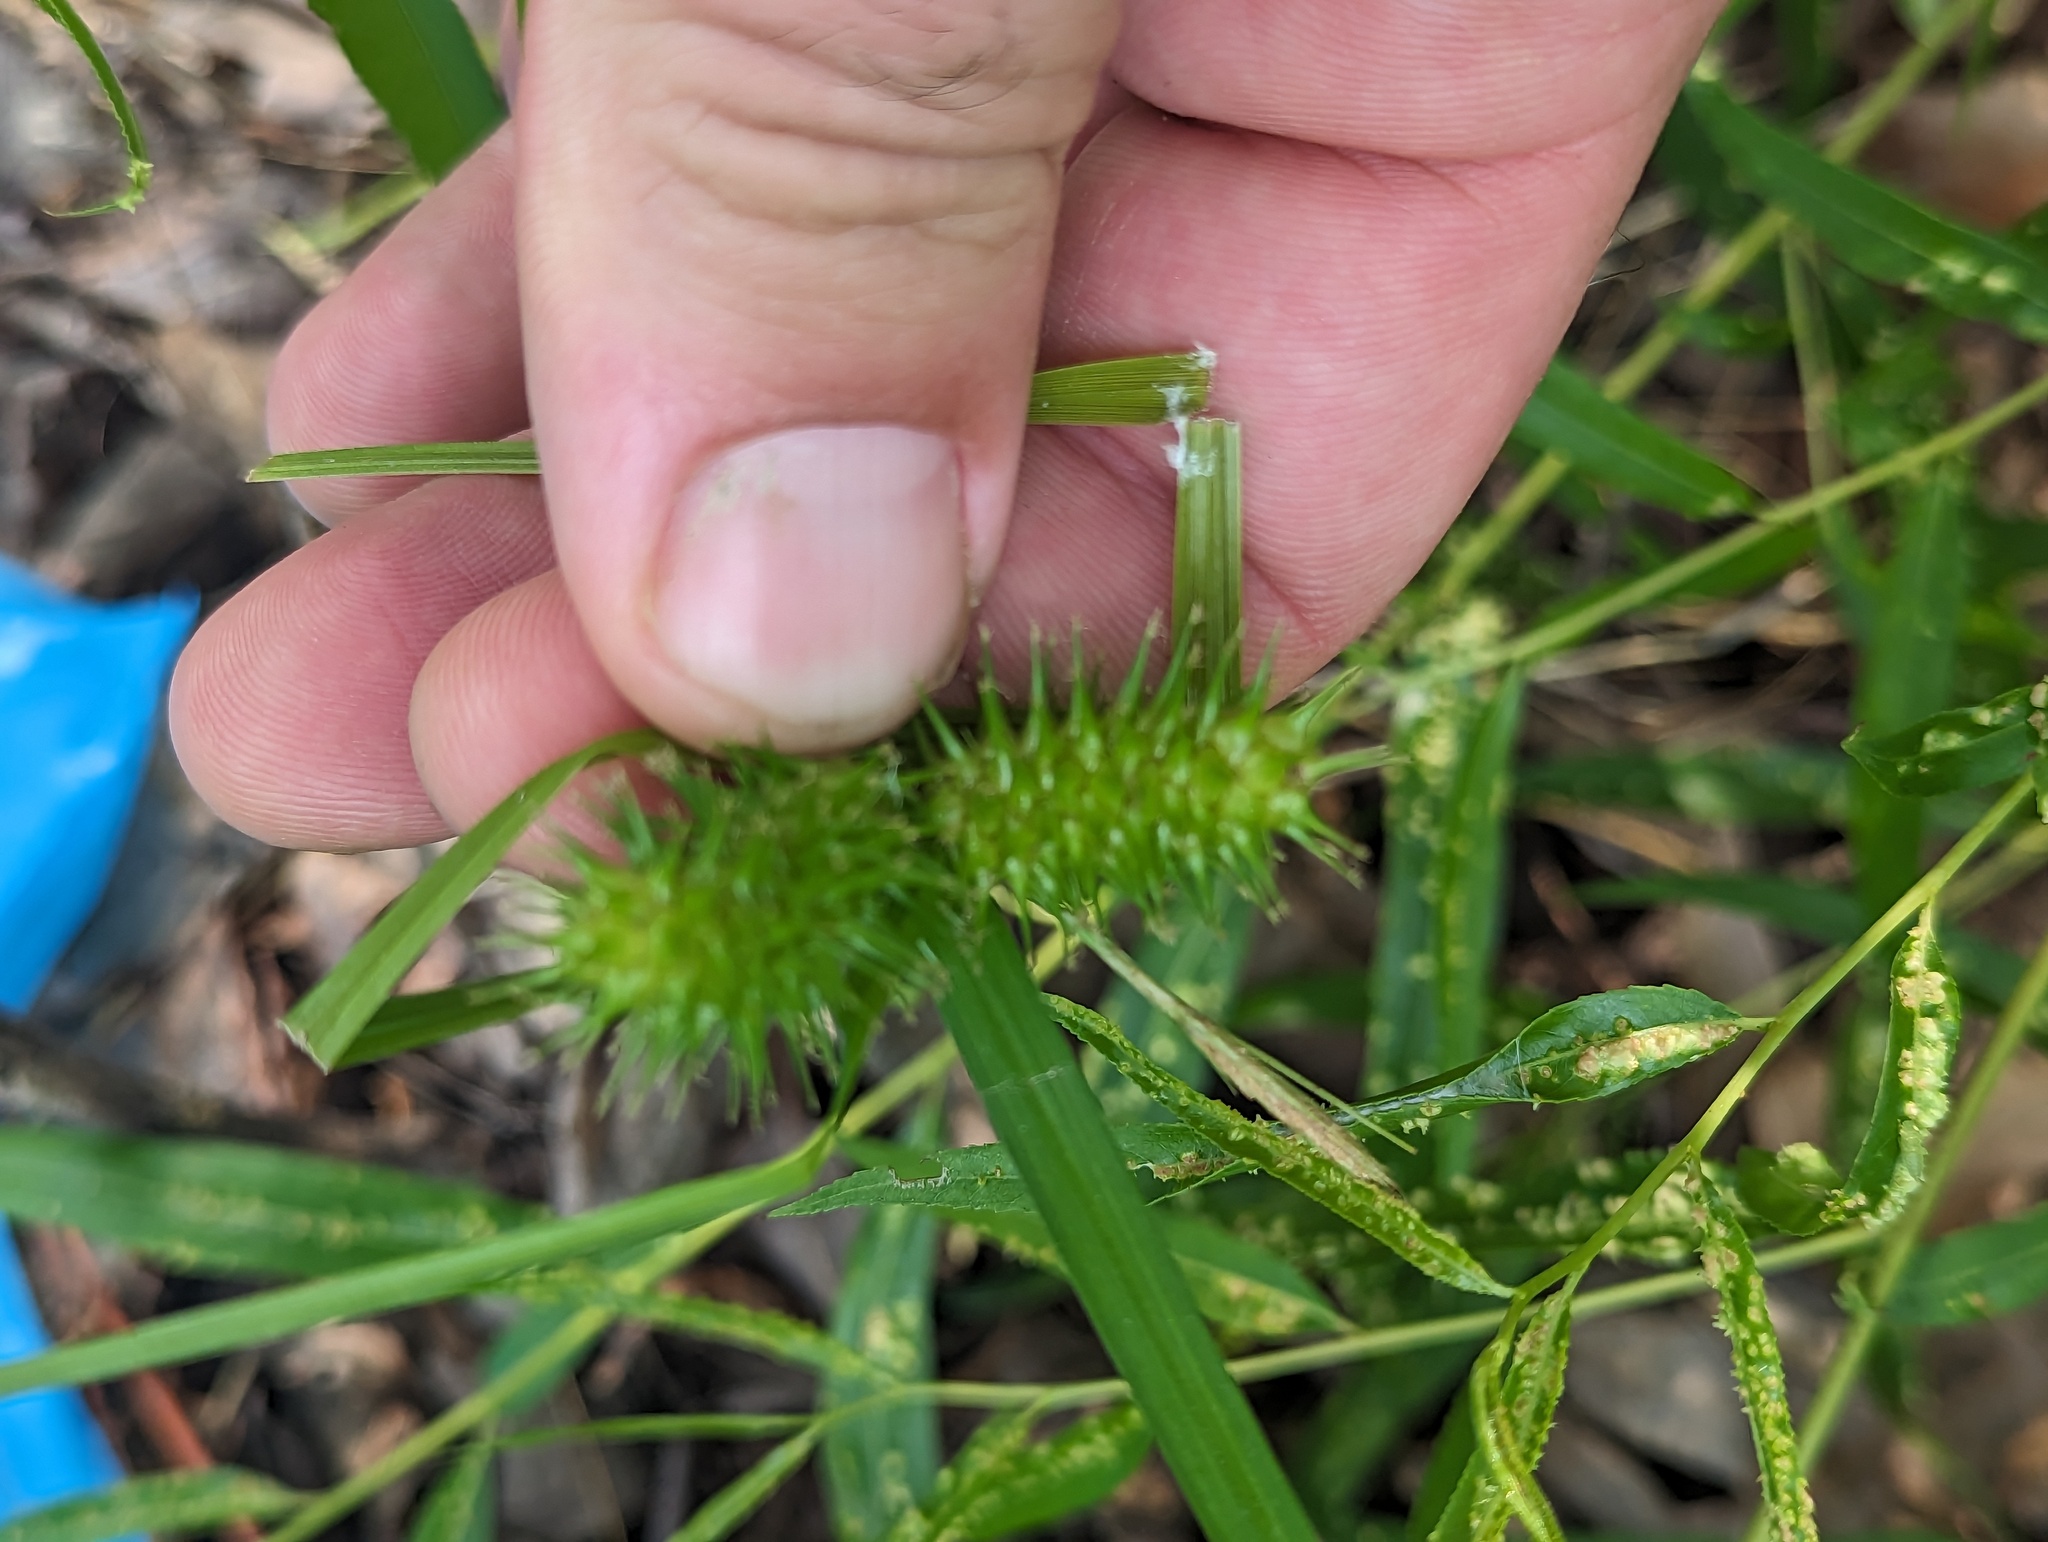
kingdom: Plantae
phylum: Tracheophyta
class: Liliopsida
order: Poales
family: Cyperaceae
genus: Carex
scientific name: Carex lurida
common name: Sallow sedge
